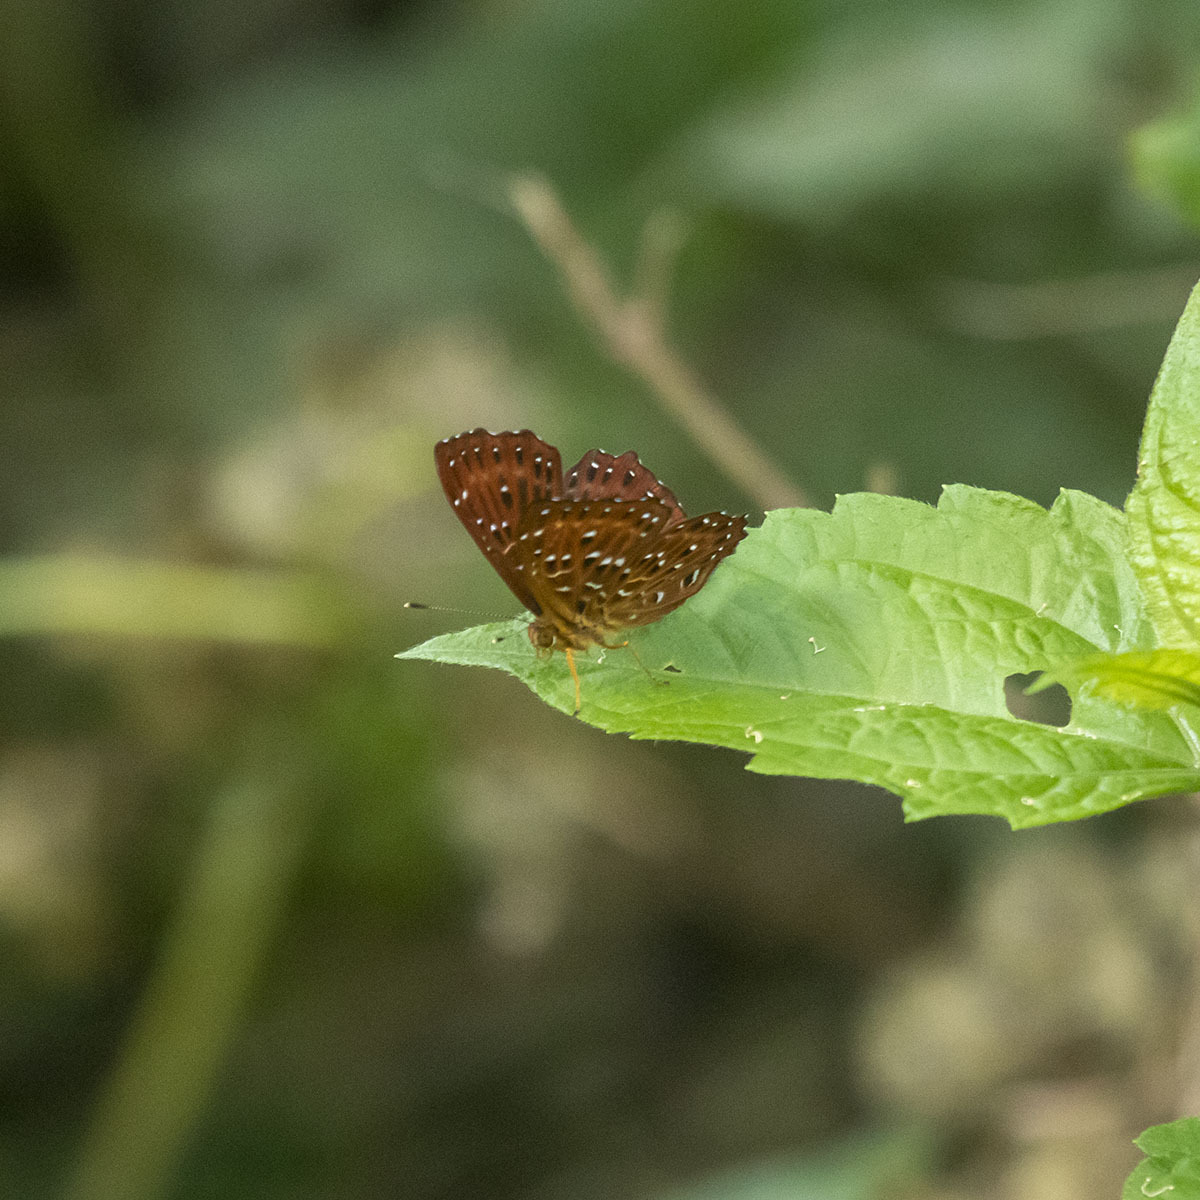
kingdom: Animalia
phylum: Arthropoda
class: Insecta
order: Lepidoptera
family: Riodinidae
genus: Zemeros
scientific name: Zemeros flegyas
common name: Punchinello
